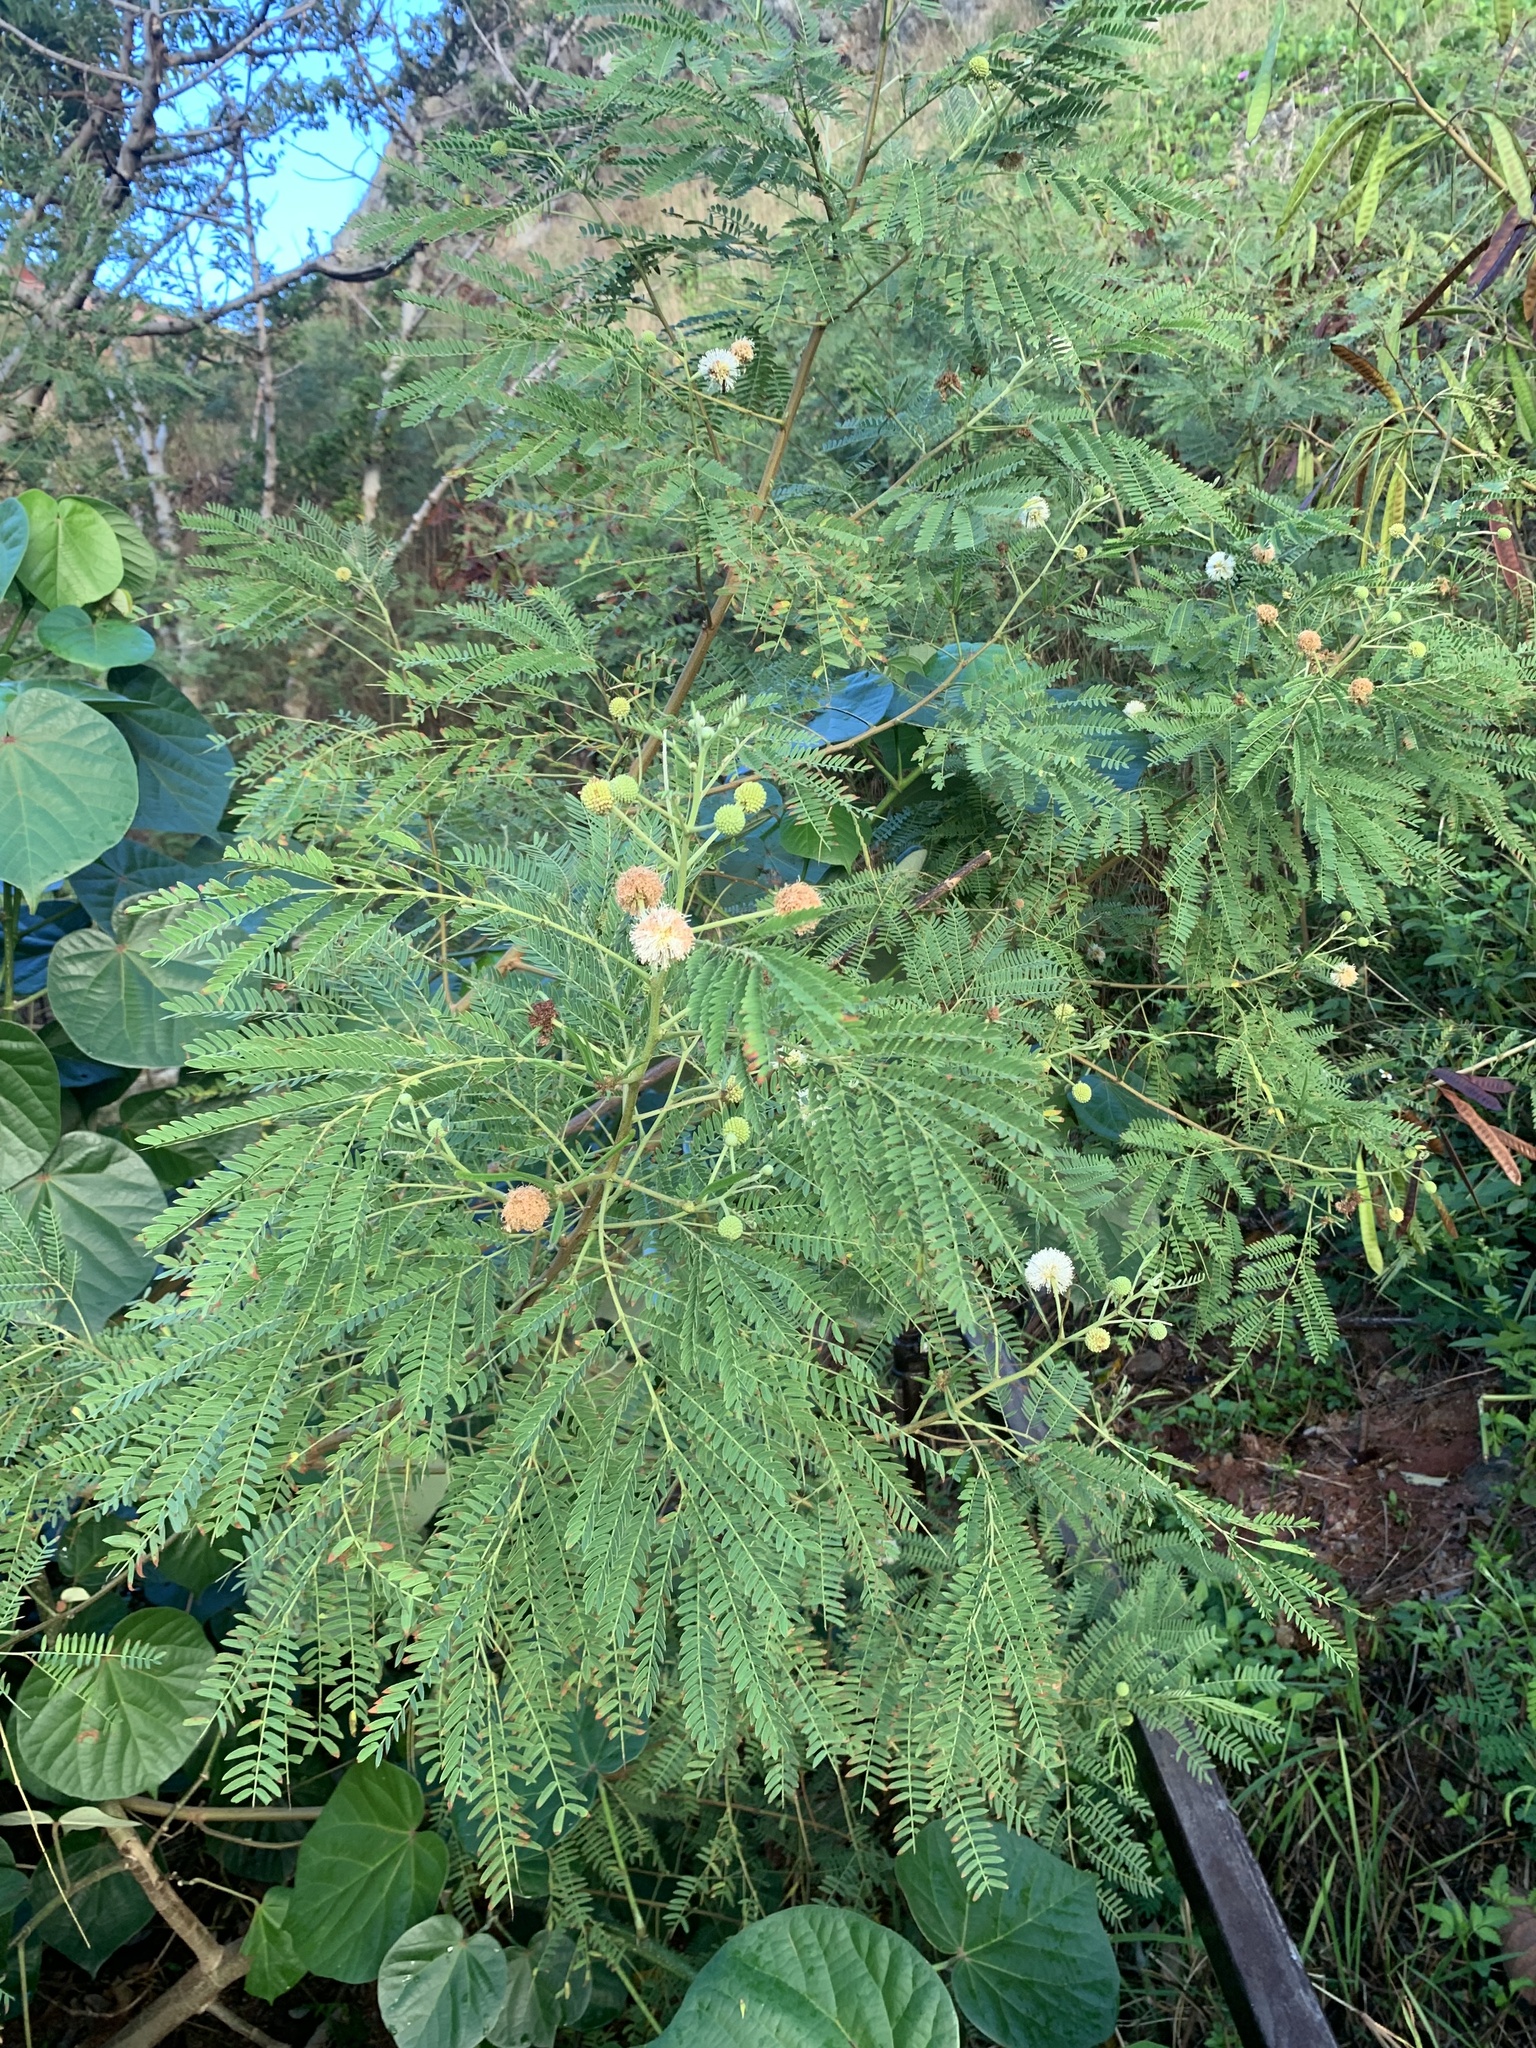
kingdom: Plantae
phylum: Tracheophyta
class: Magnoliopsida
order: Fabales
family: Fabaceae
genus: Leucaena
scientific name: Leucaena leucocephala
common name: White leadtree
